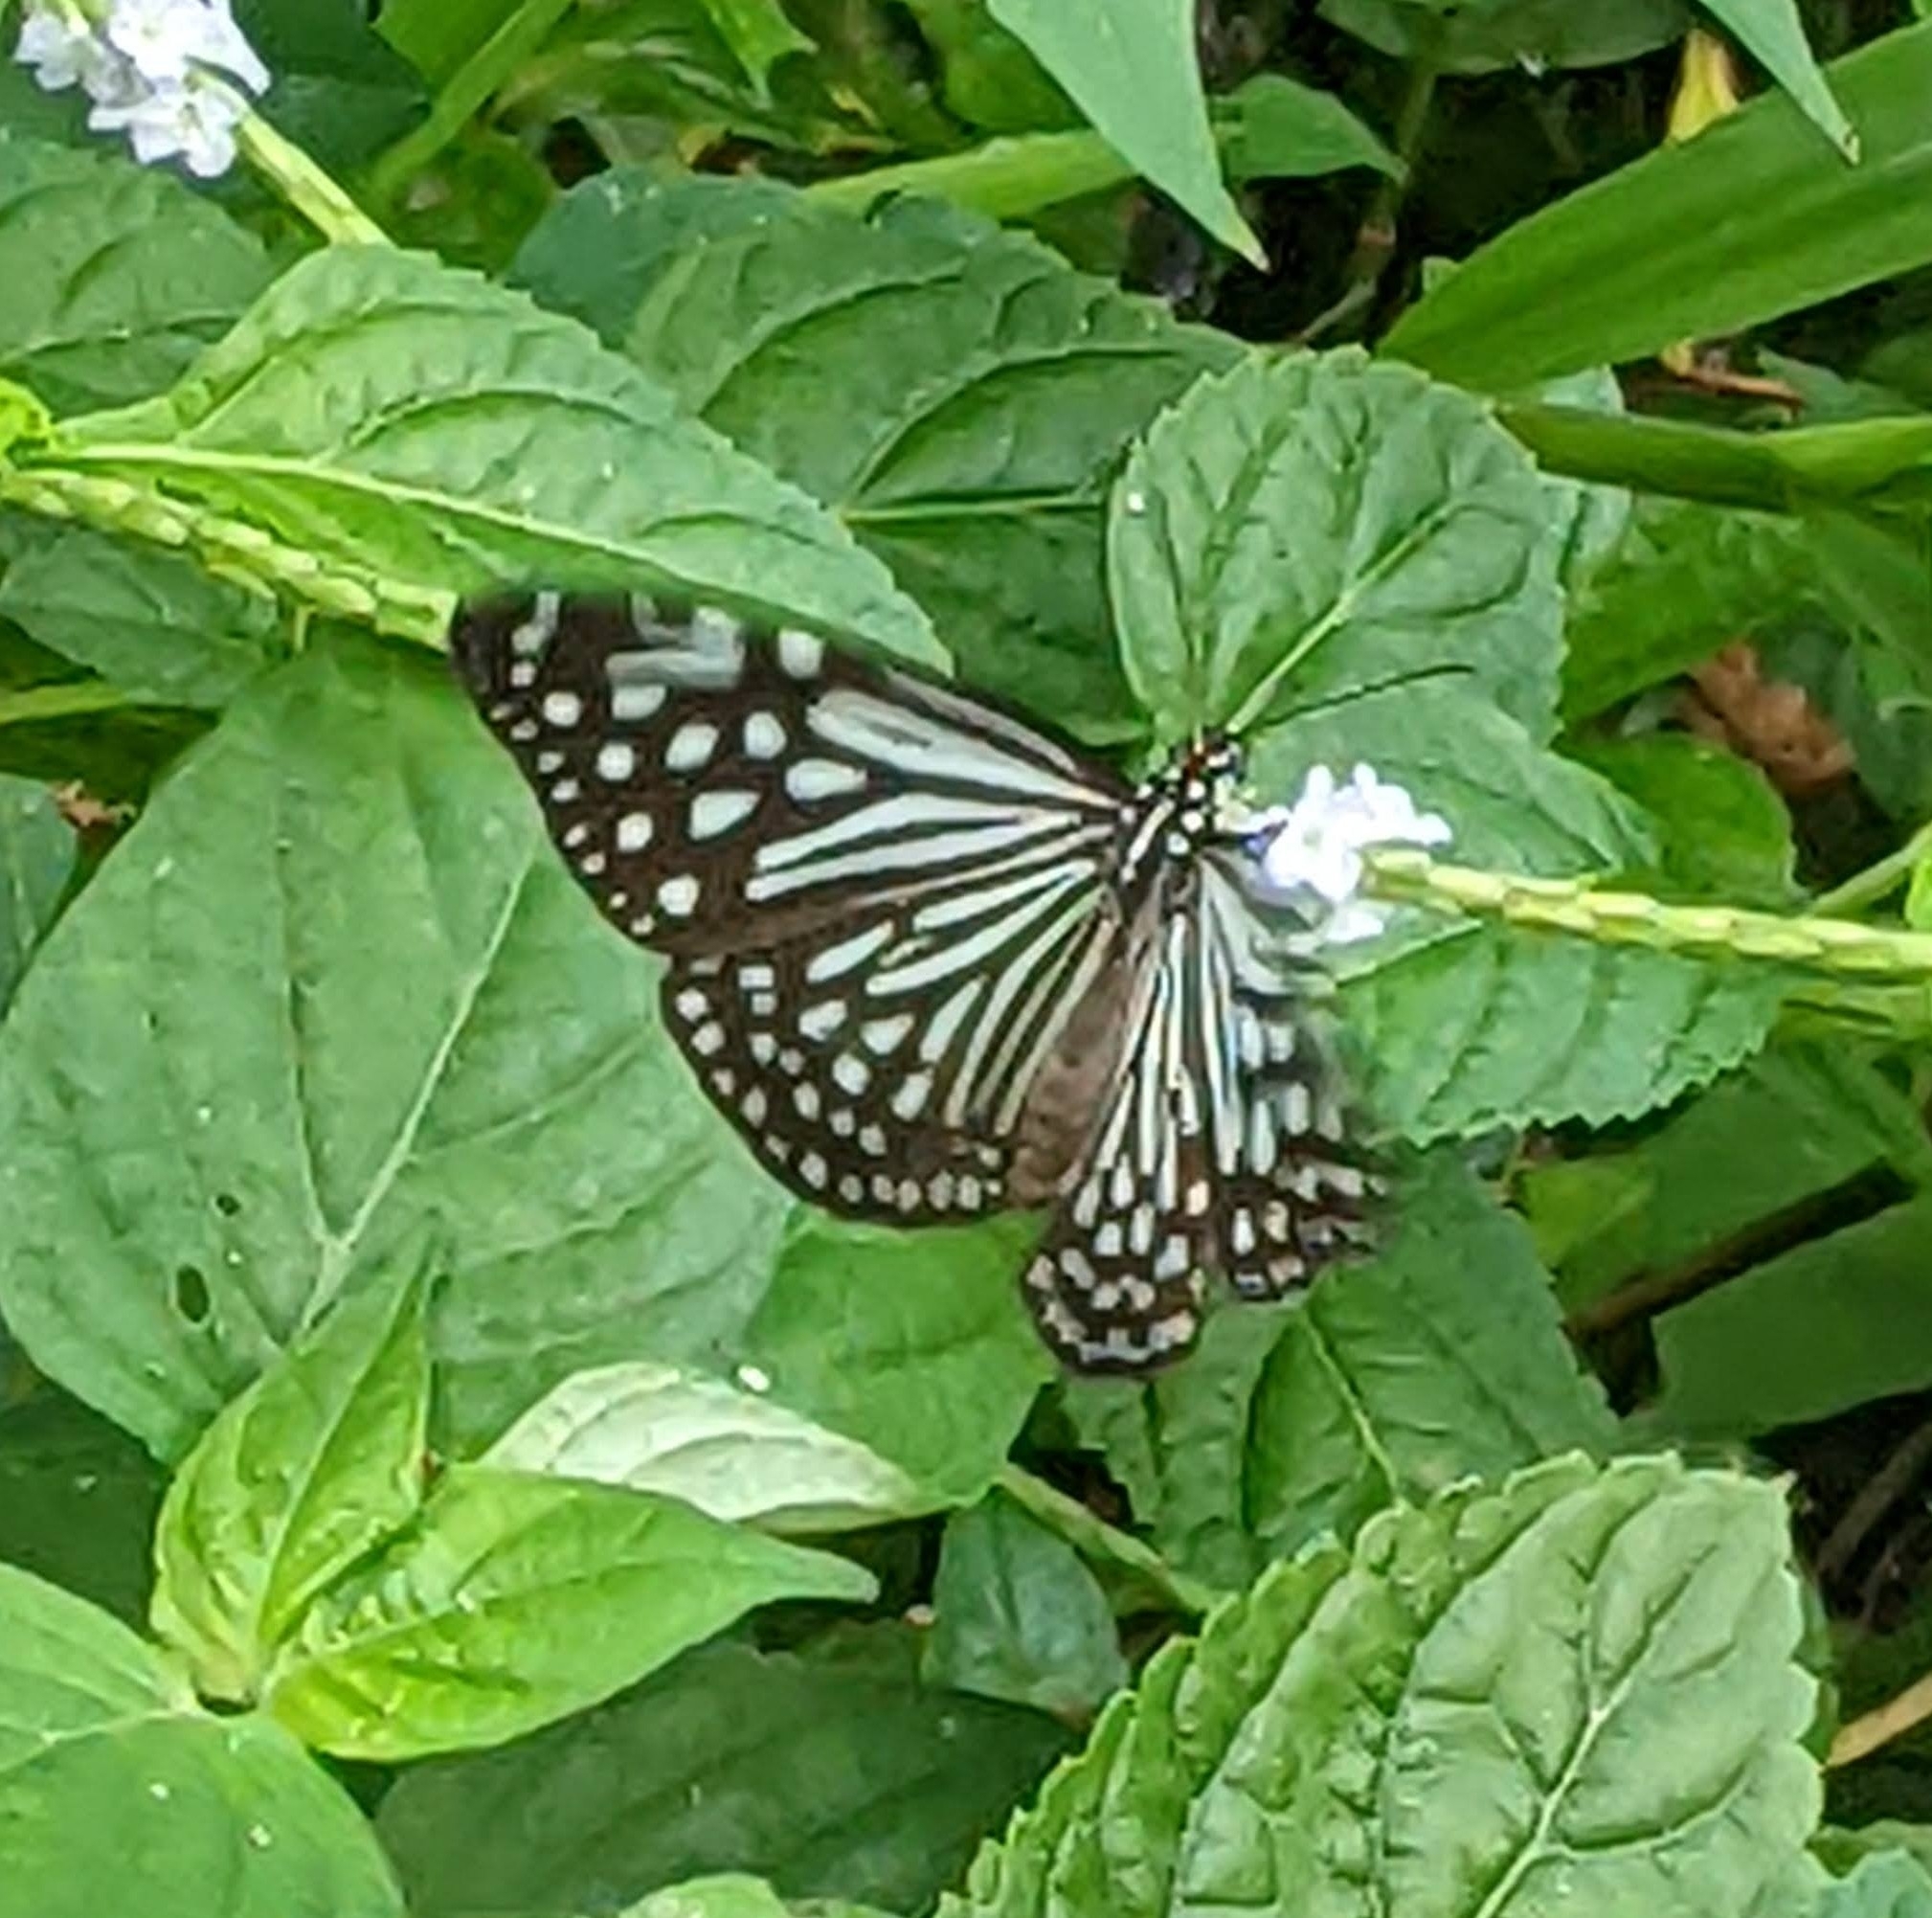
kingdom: Animalia
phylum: Arthropoda
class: Insecta
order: Lepidoptera
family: Nymphalidae
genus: Parantica
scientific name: Parantica agleoides
